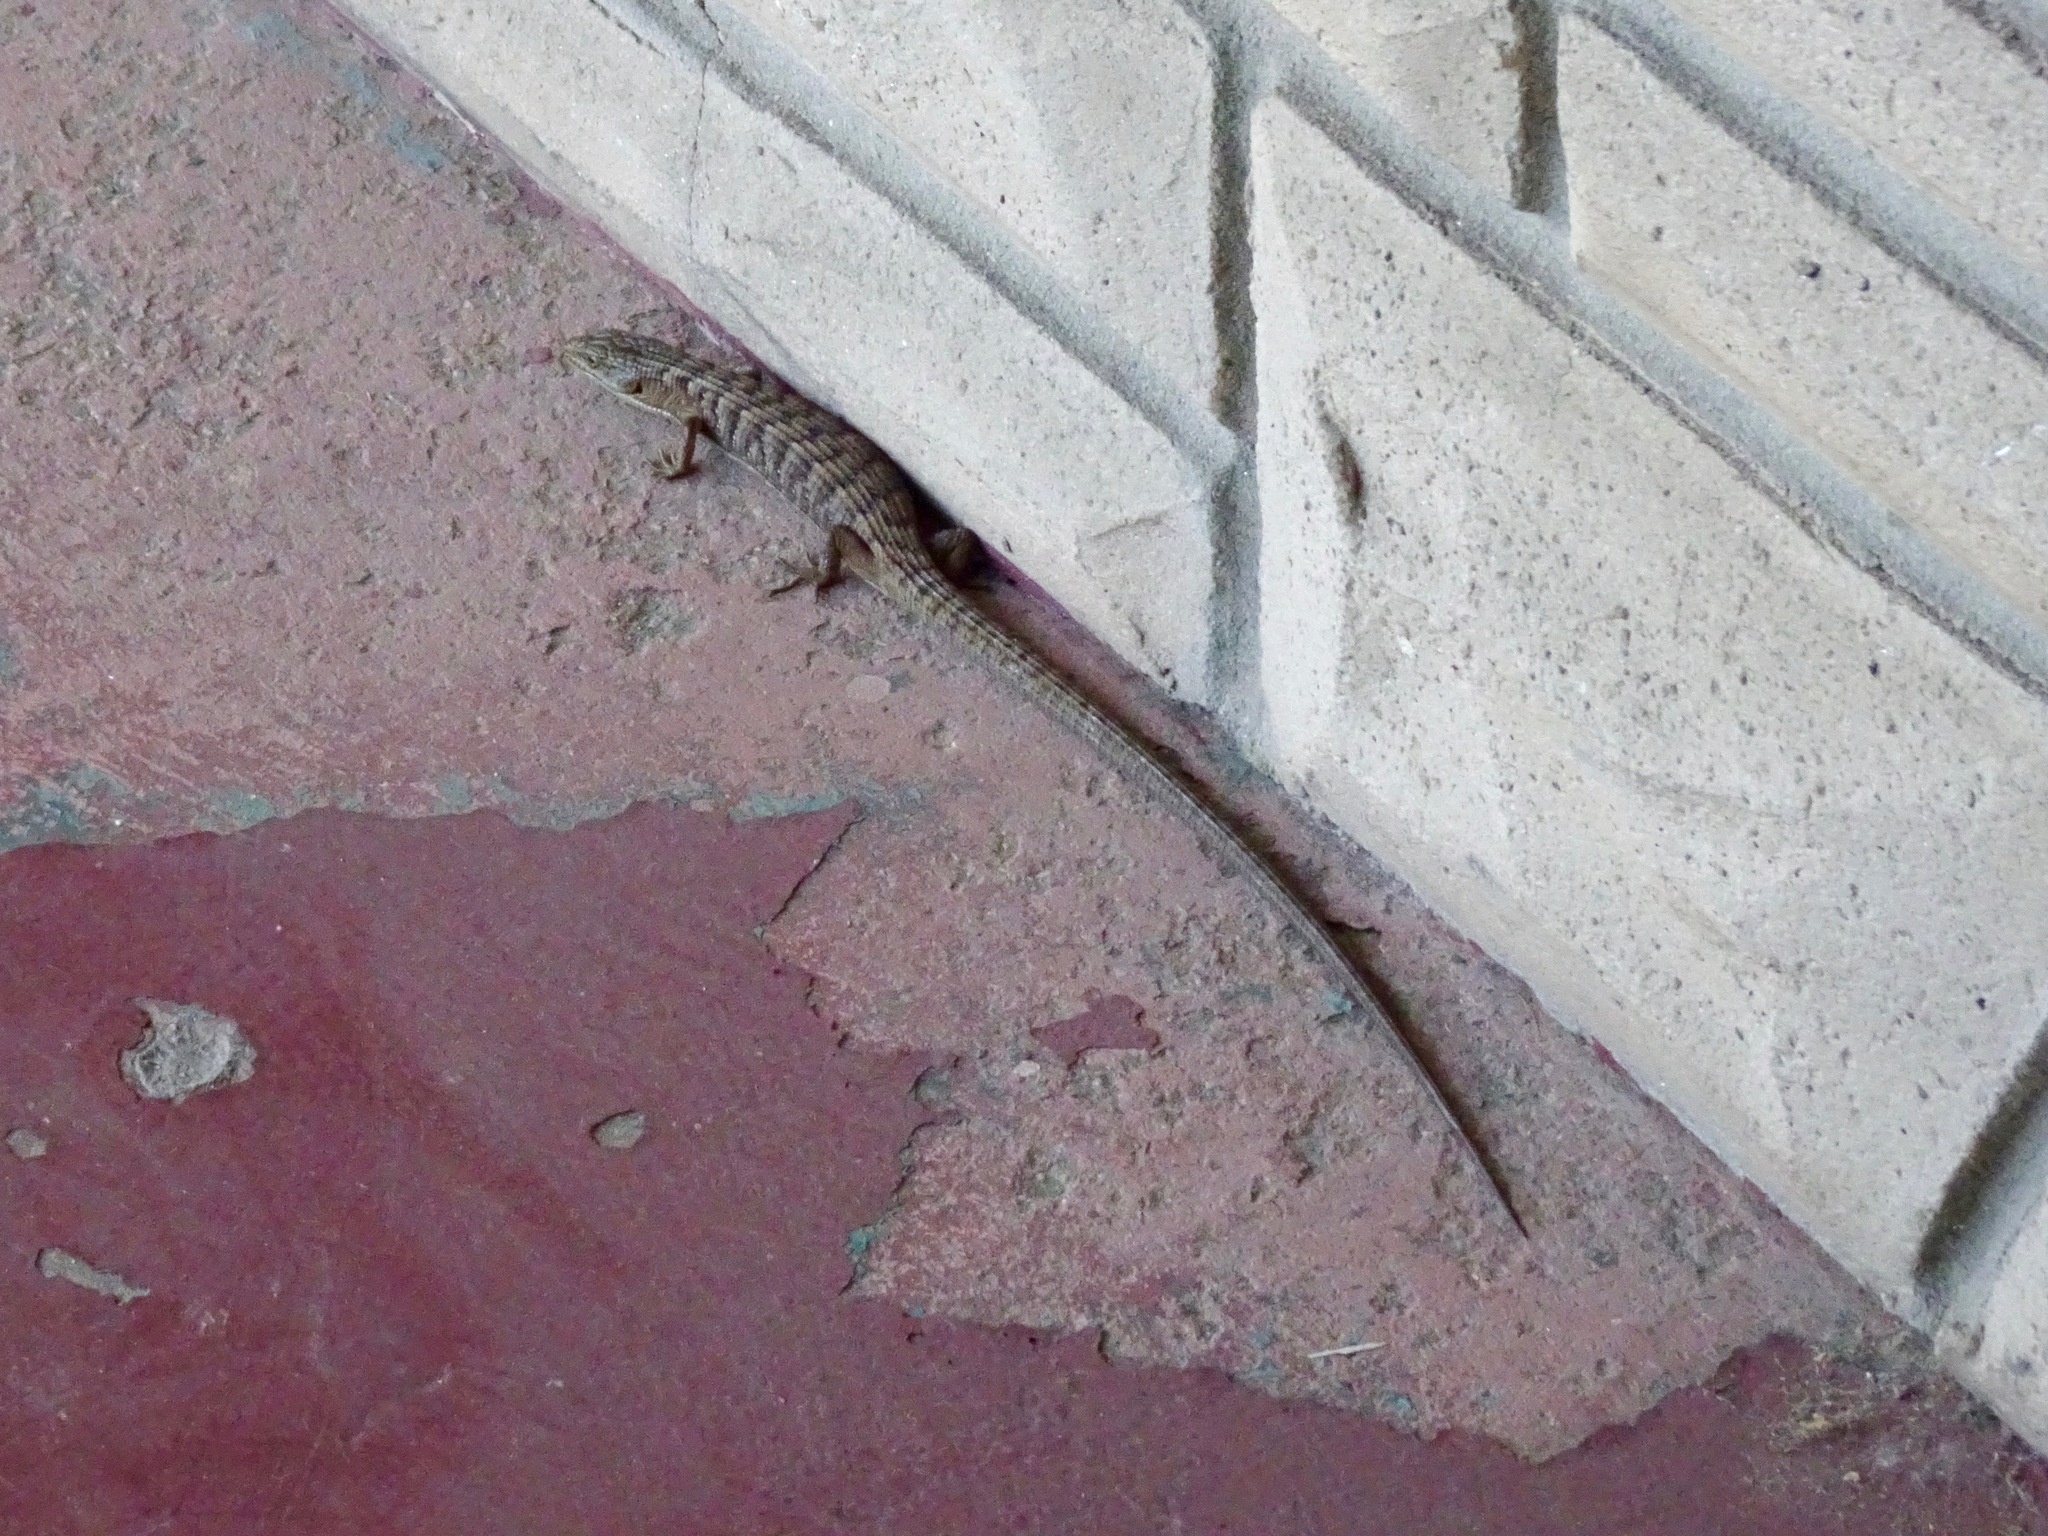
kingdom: Animalia
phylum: Chordata
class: Squamata
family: Anguidae
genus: Elgaria
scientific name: Elgaria multicarinata
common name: Southern alligator lizard
